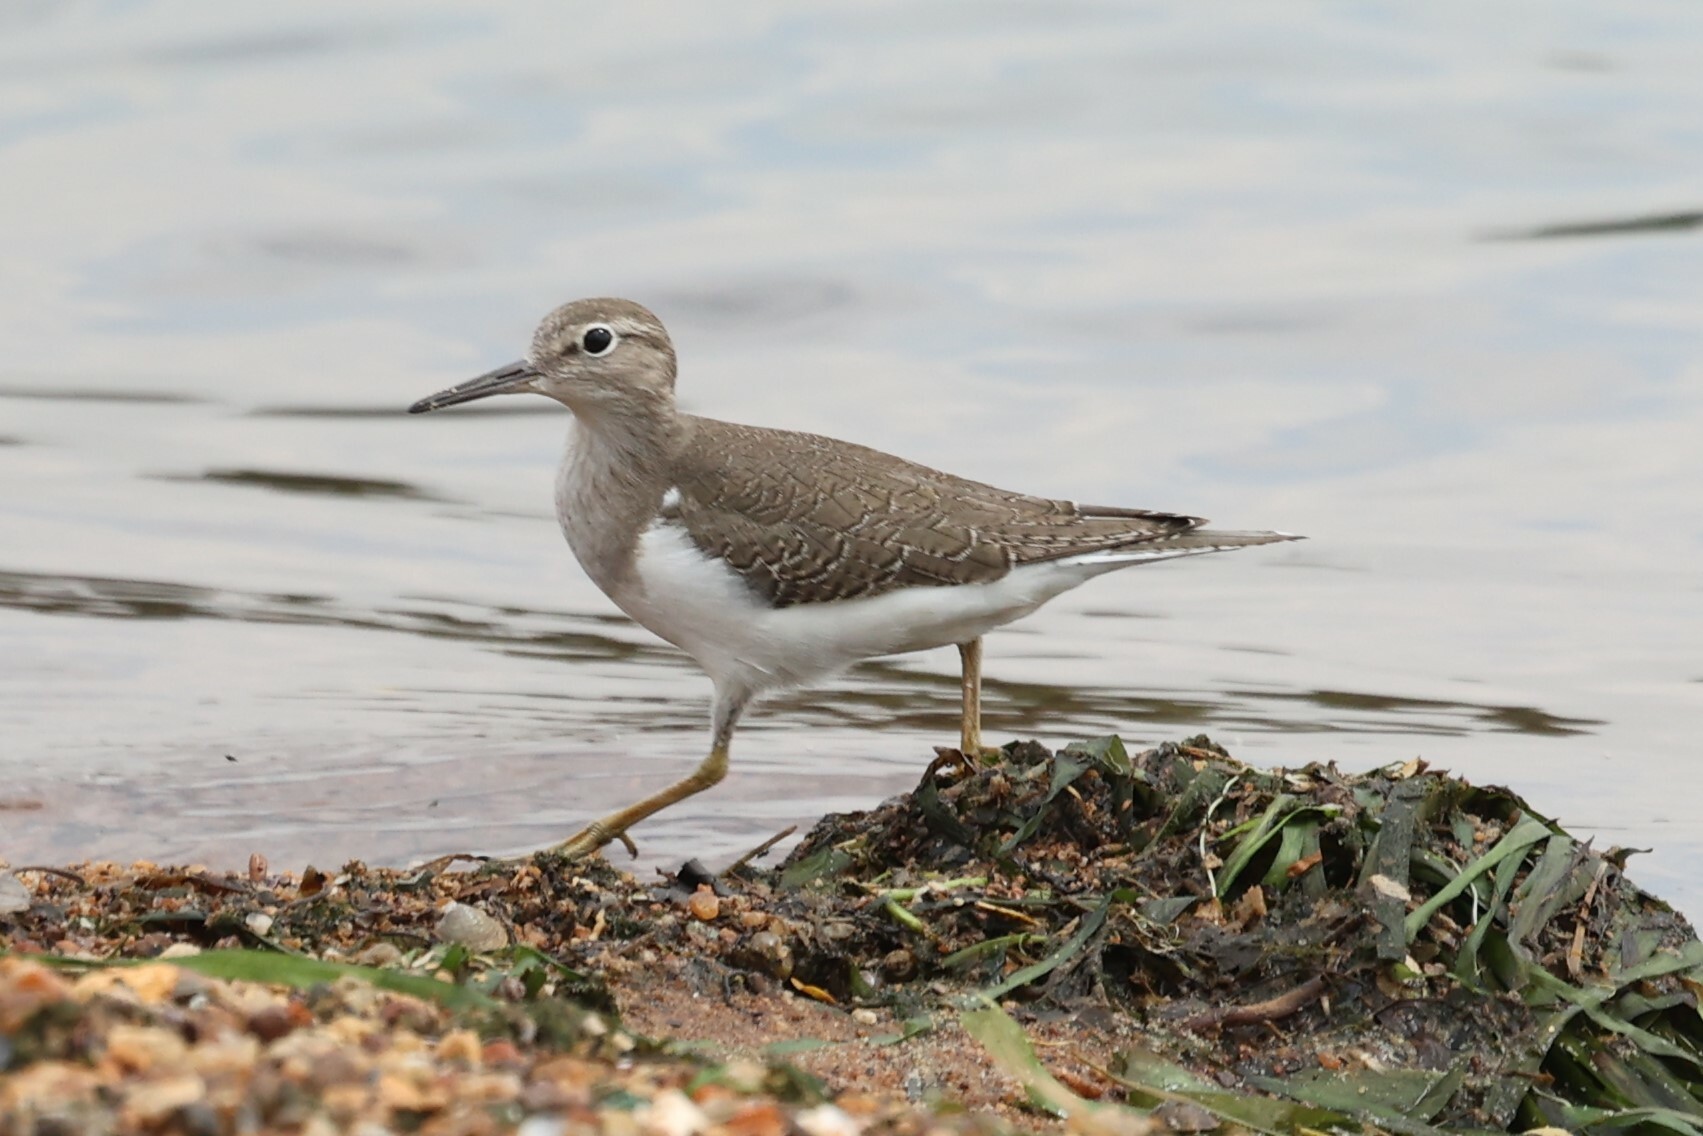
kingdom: Animalia
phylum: Chordata
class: Aves
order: Charadriiformes
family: Scolopacidae
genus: Actitis
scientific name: Actitis hypoleucos
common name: Common sandpiper
